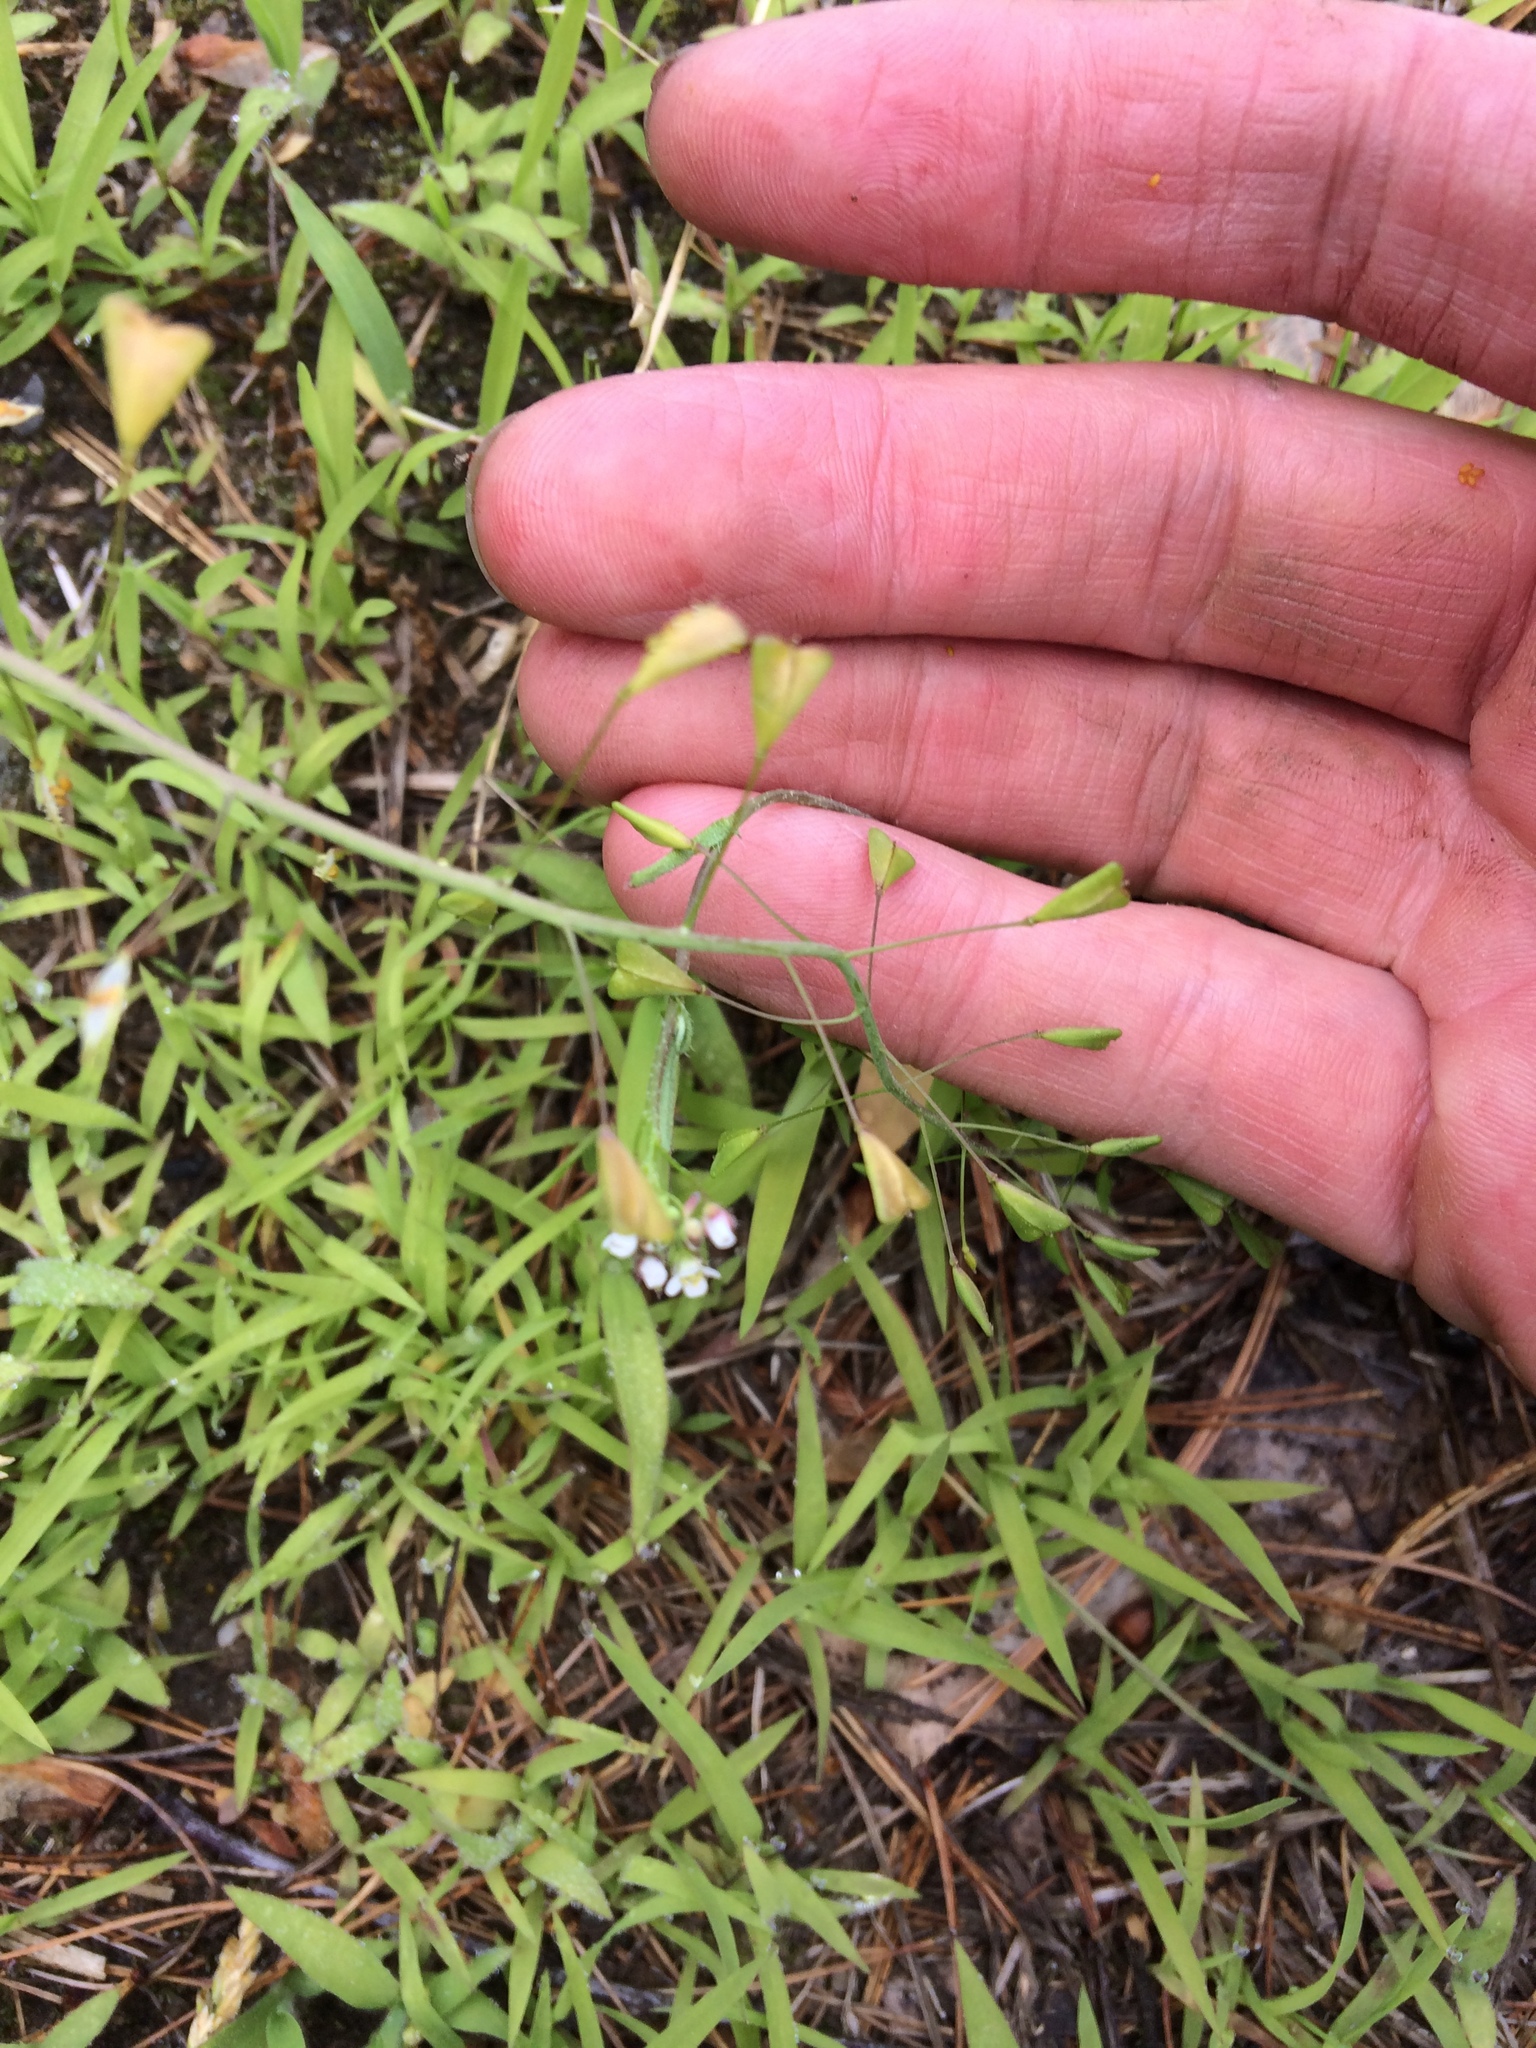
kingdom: Plantae
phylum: Tracheophyta
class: Magnoliopsida
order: Brassicales
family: Brassicaceae
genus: Capsella
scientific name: Capsella bursa-pastoris
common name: Shepherd's purse
